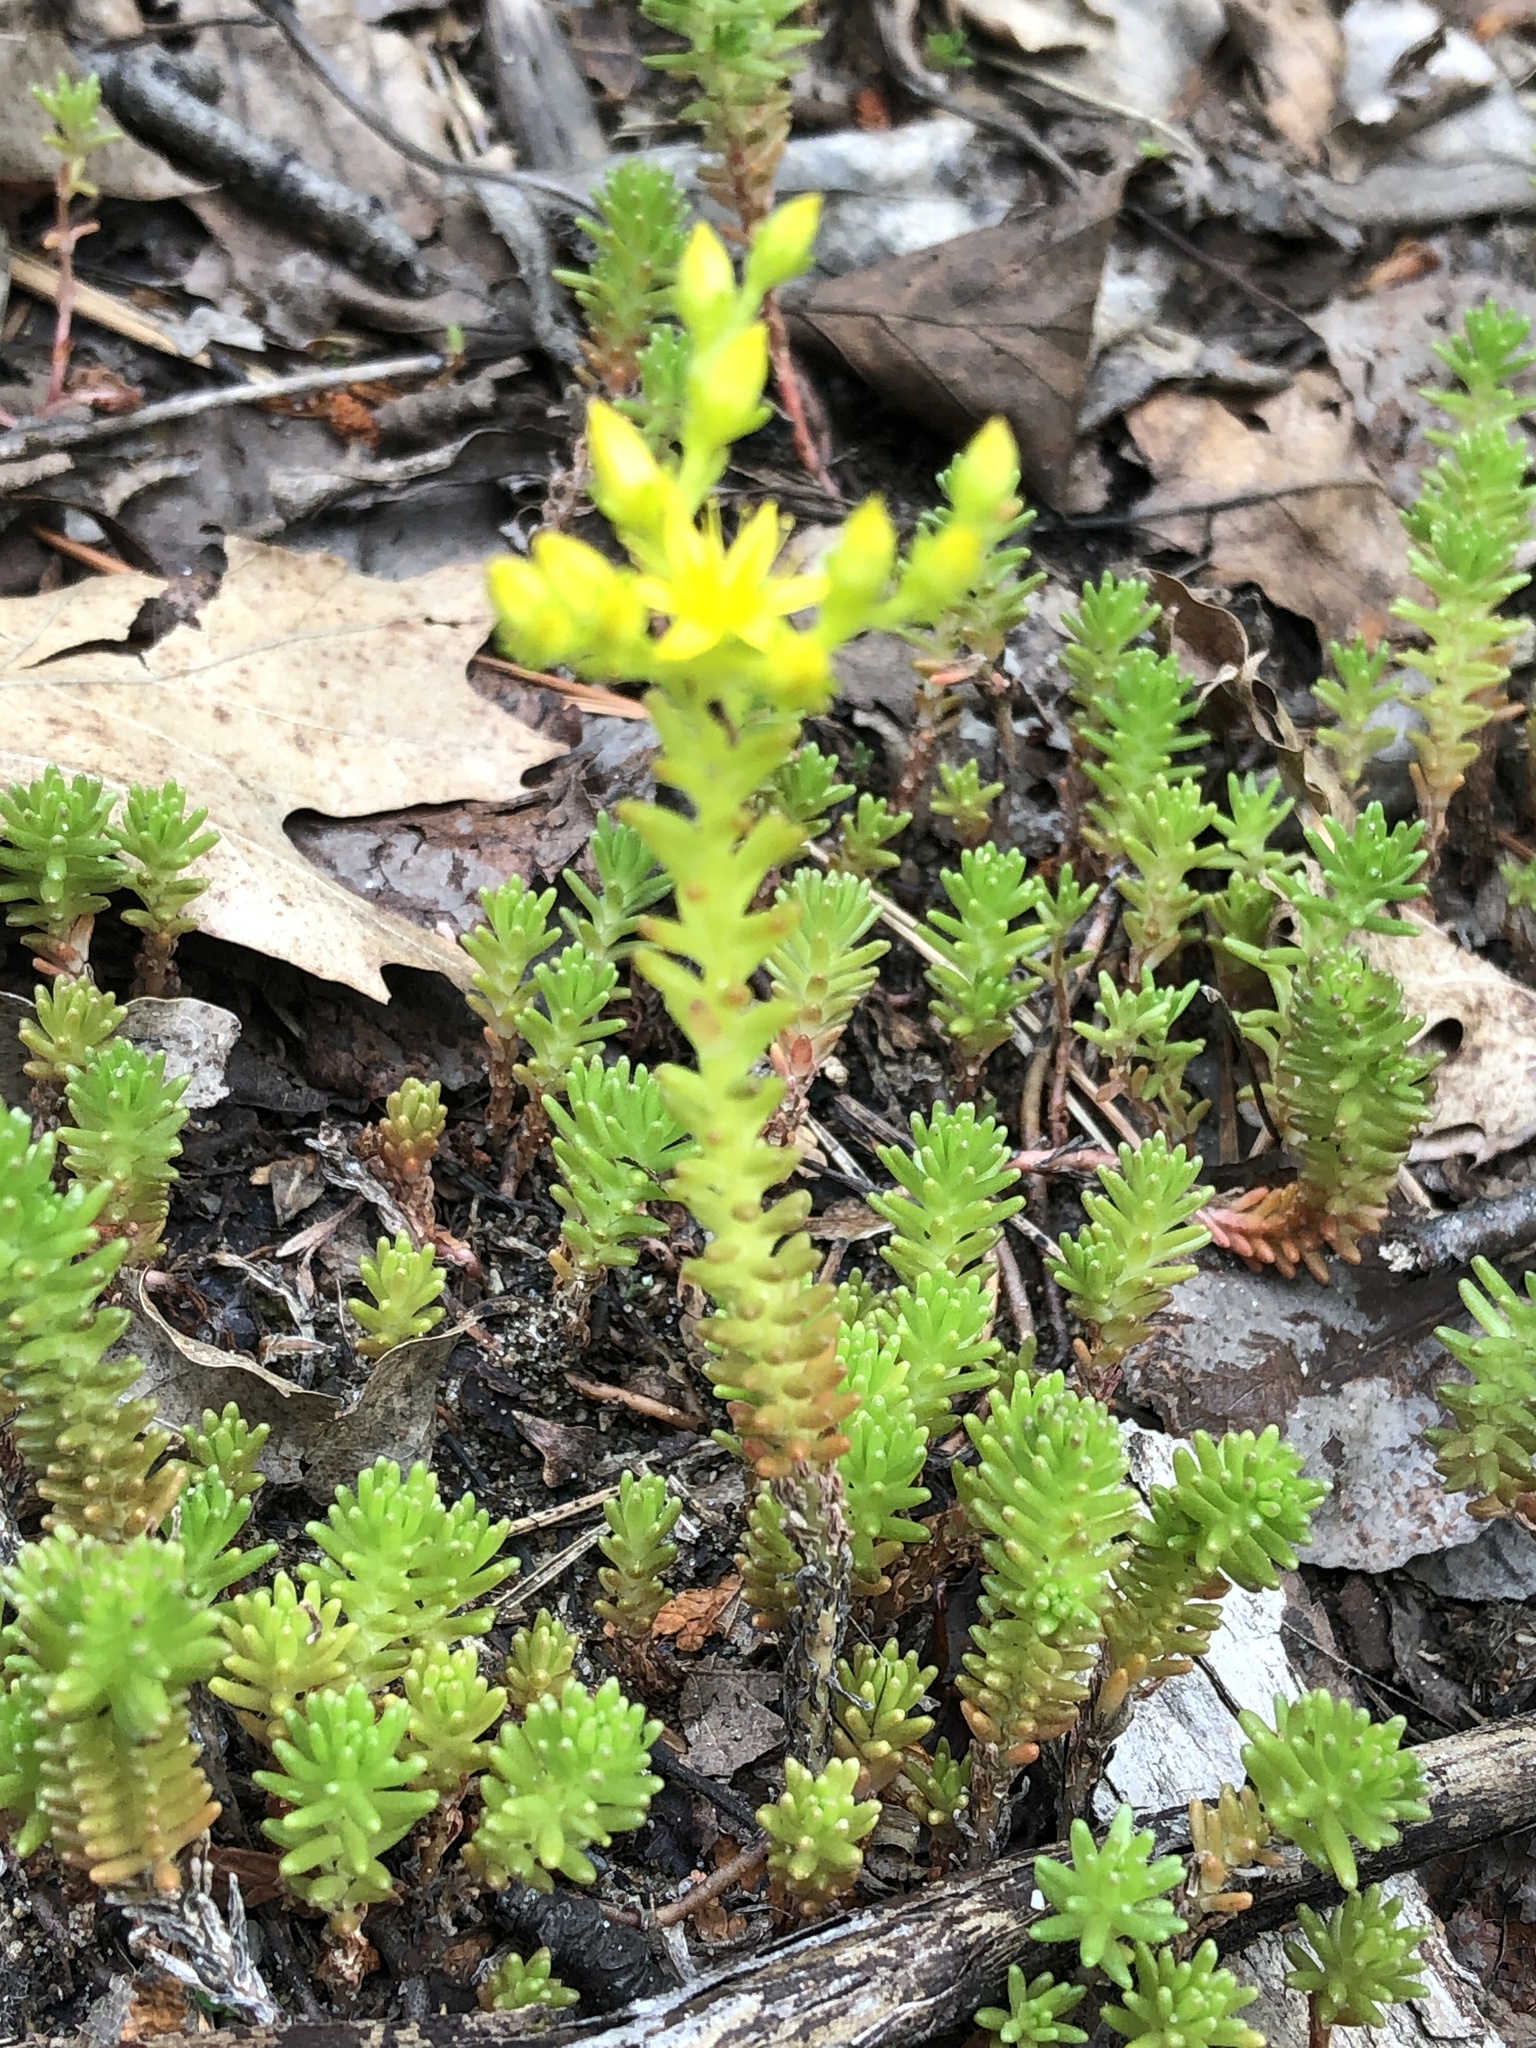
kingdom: Plantae
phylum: Tracheophyta
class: Magnoliopsida
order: Saxifragales
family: Crassulaceae
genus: Sedum
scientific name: Sedum sexangulare
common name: Tasteless stonecrop
